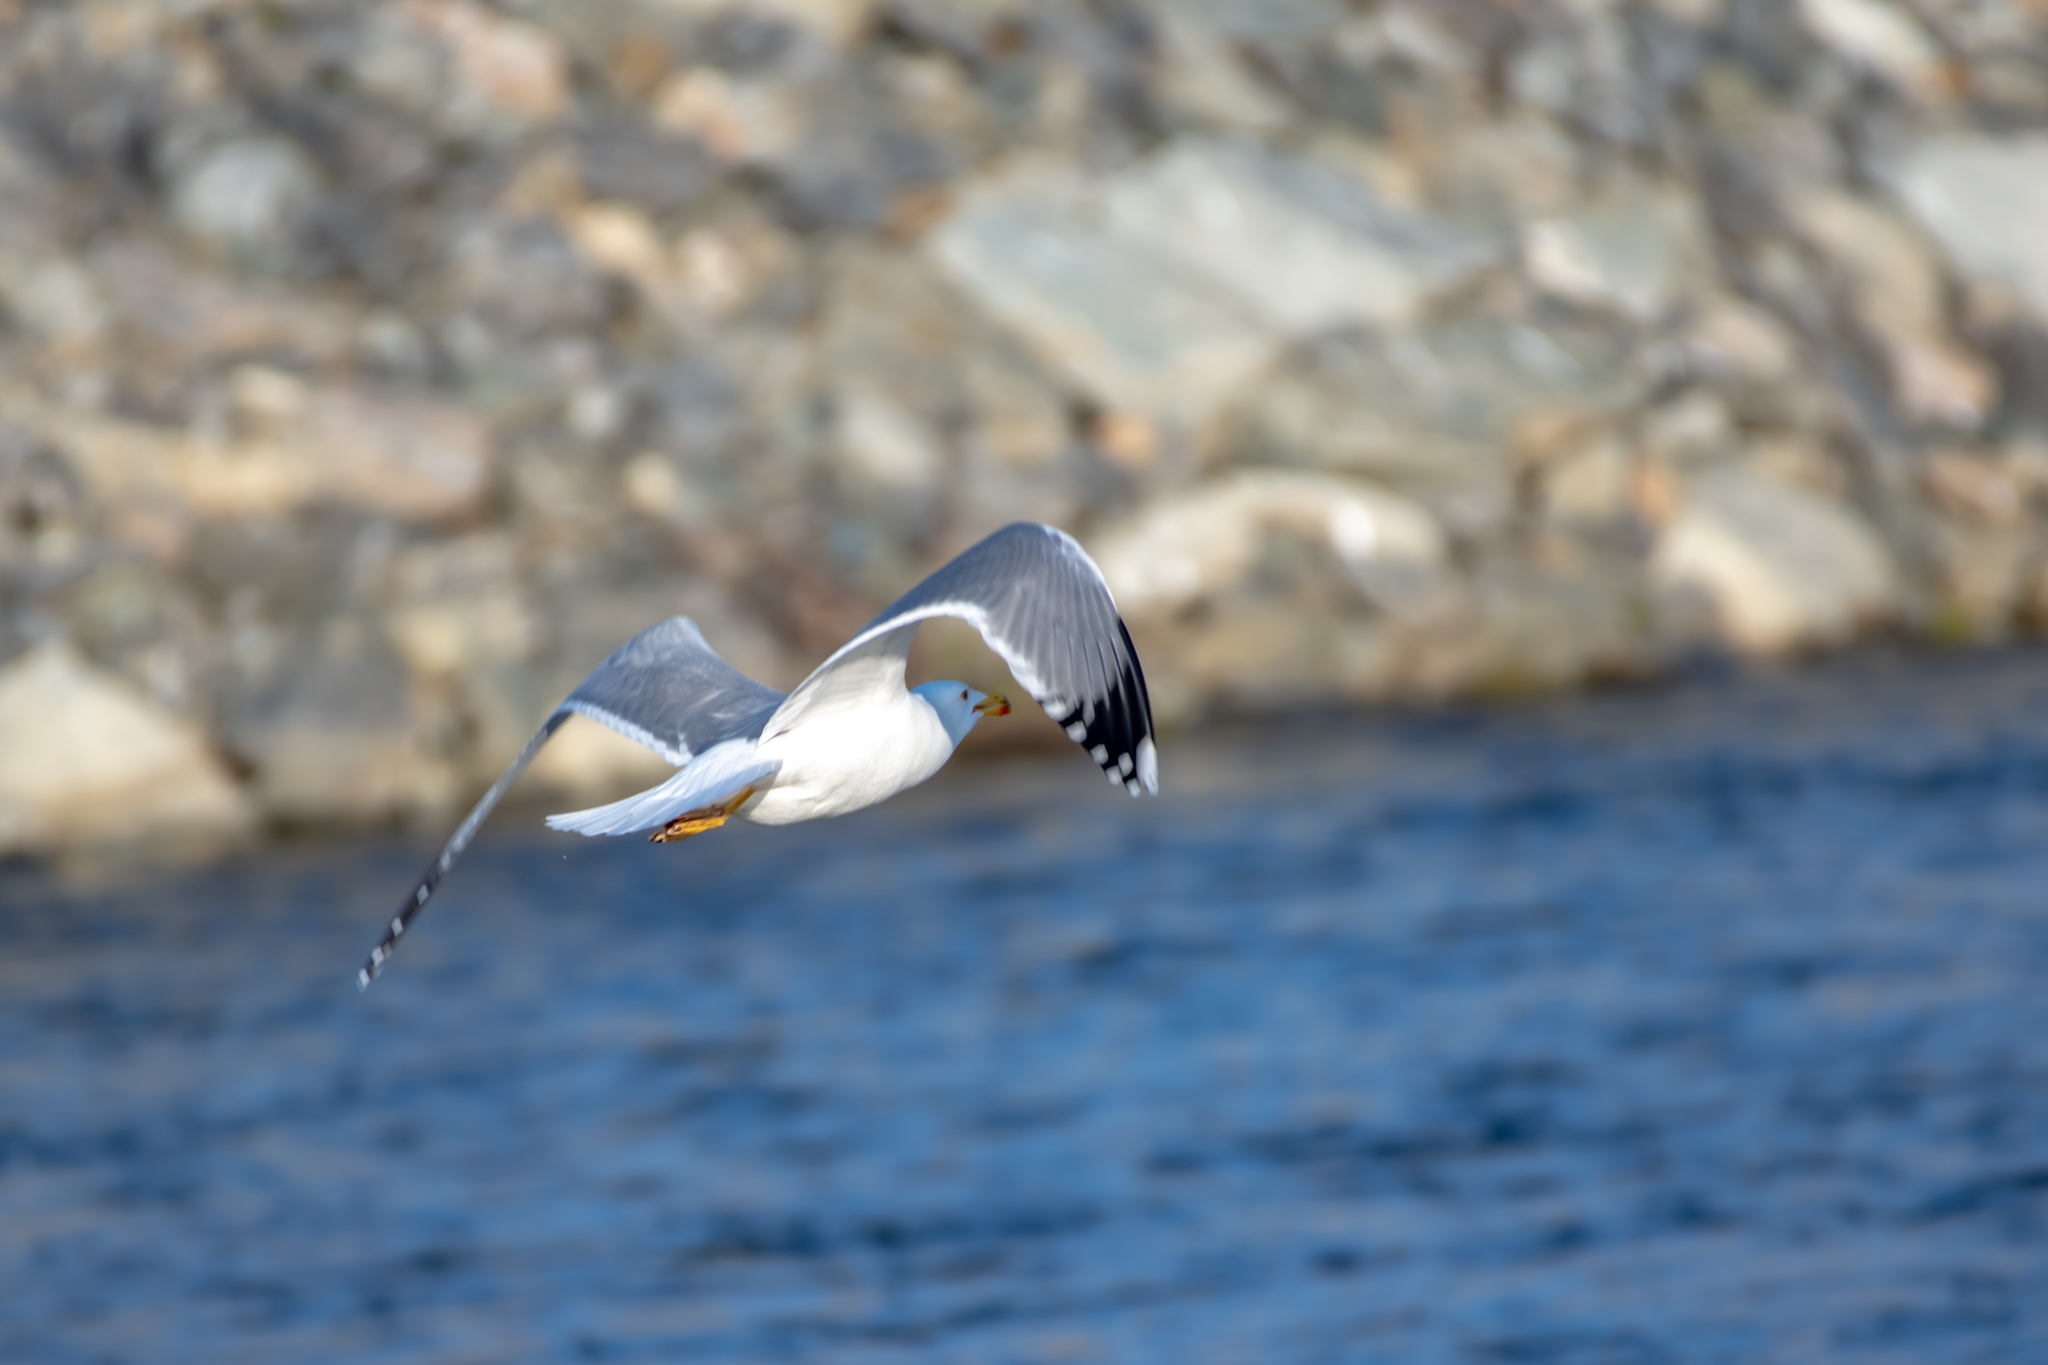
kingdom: Animalia
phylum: Chordata
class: Aves
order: Charadriiformes
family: Laridae
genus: Larus
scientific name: Larus michahellis
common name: Yellow-legged gull
